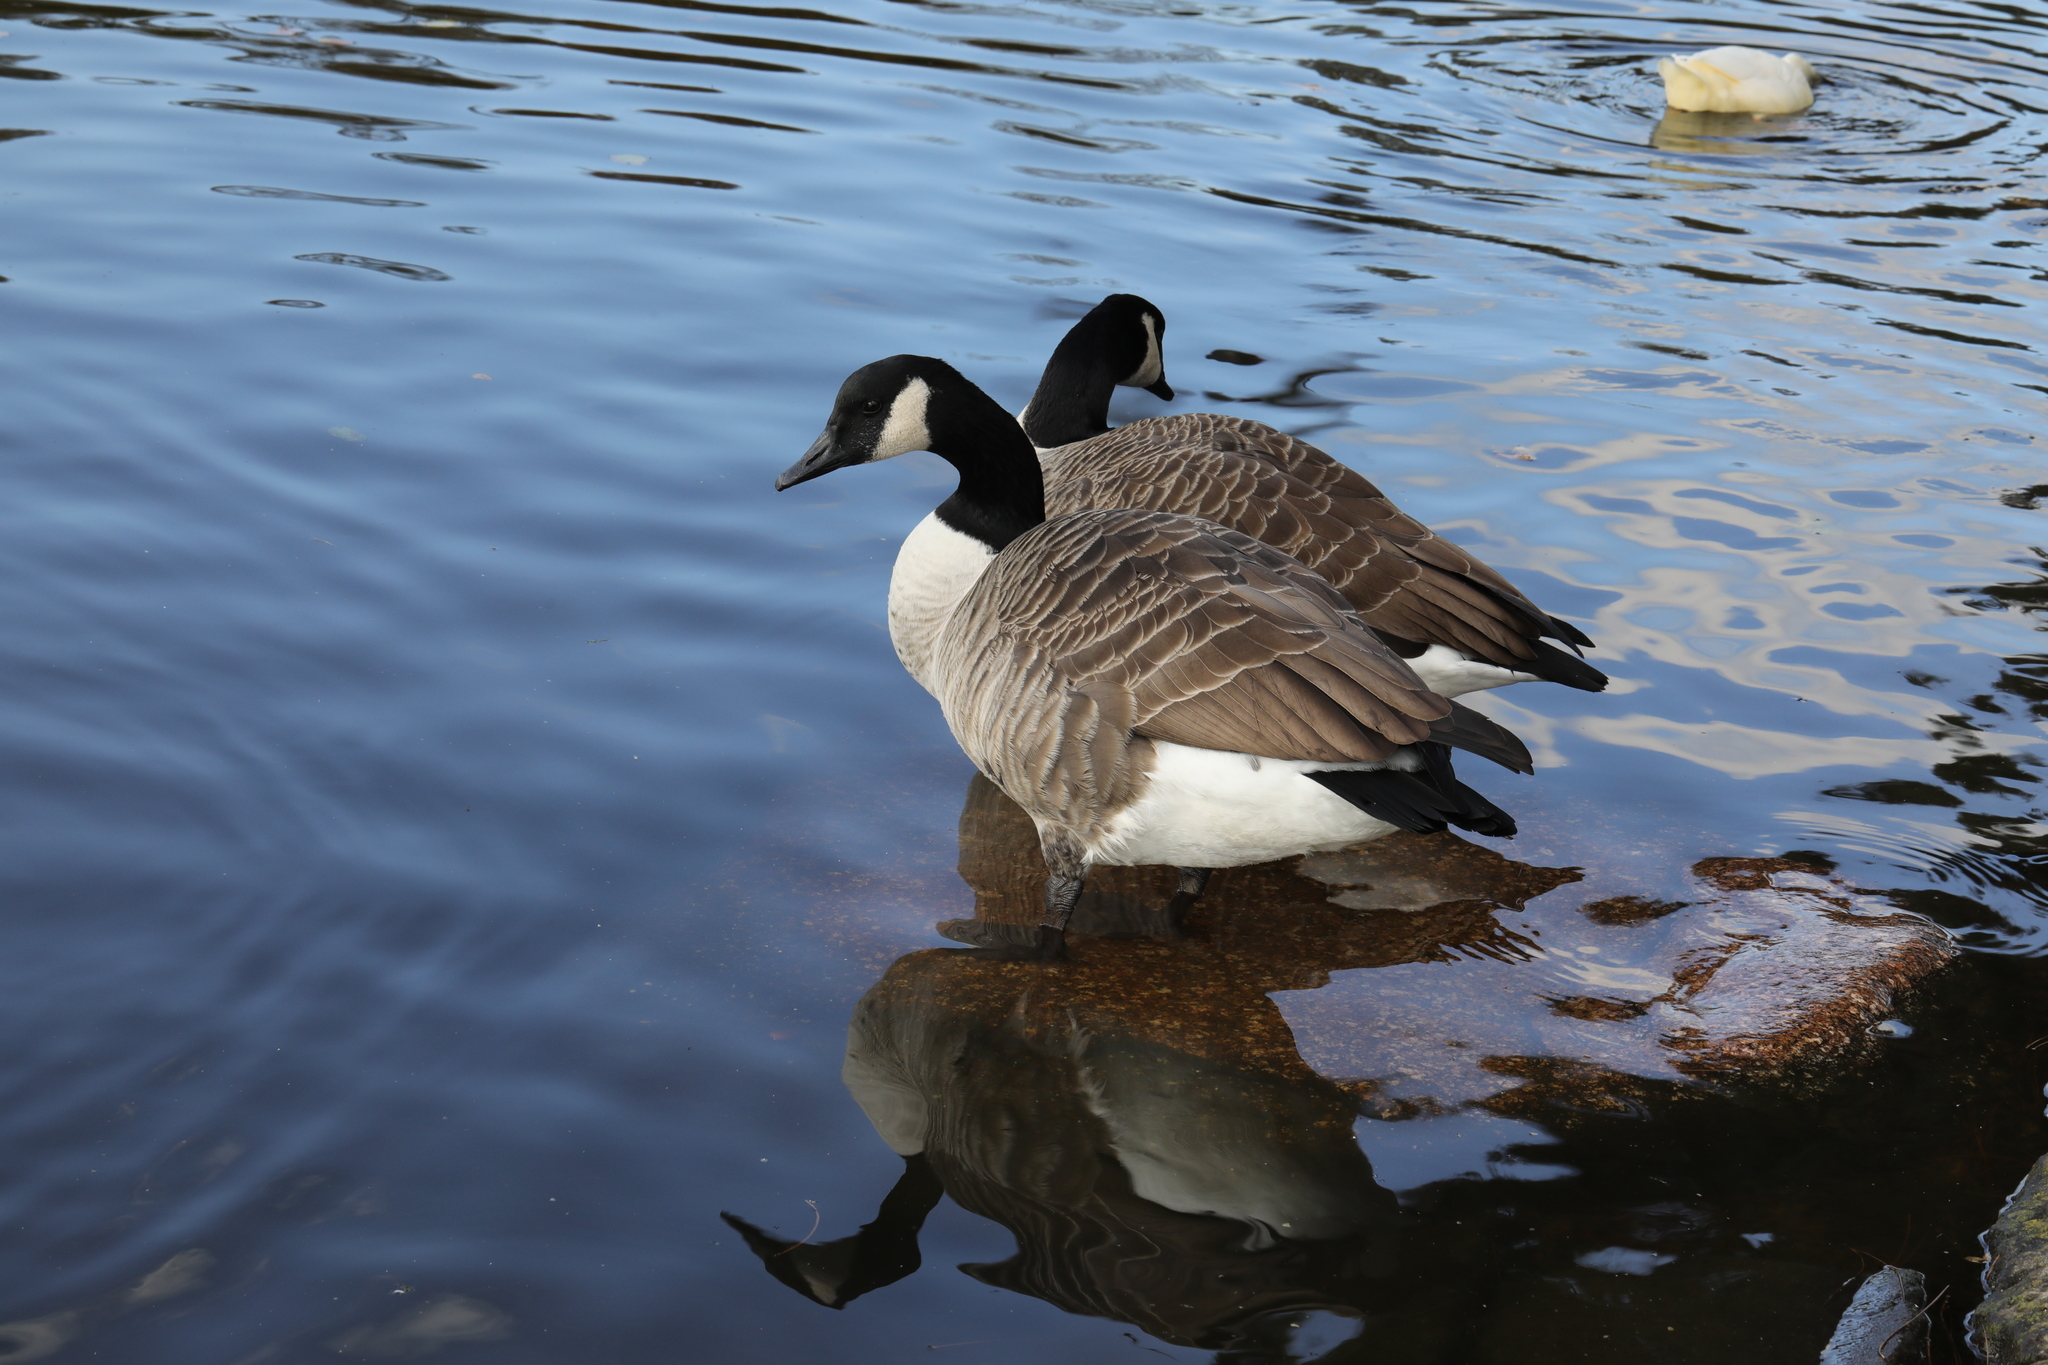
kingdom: Animalia
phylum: Chordata
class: Aves
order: Anseriformes
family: Anatidae
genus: Branta
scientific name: Branta canadensis
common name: Canada goose
